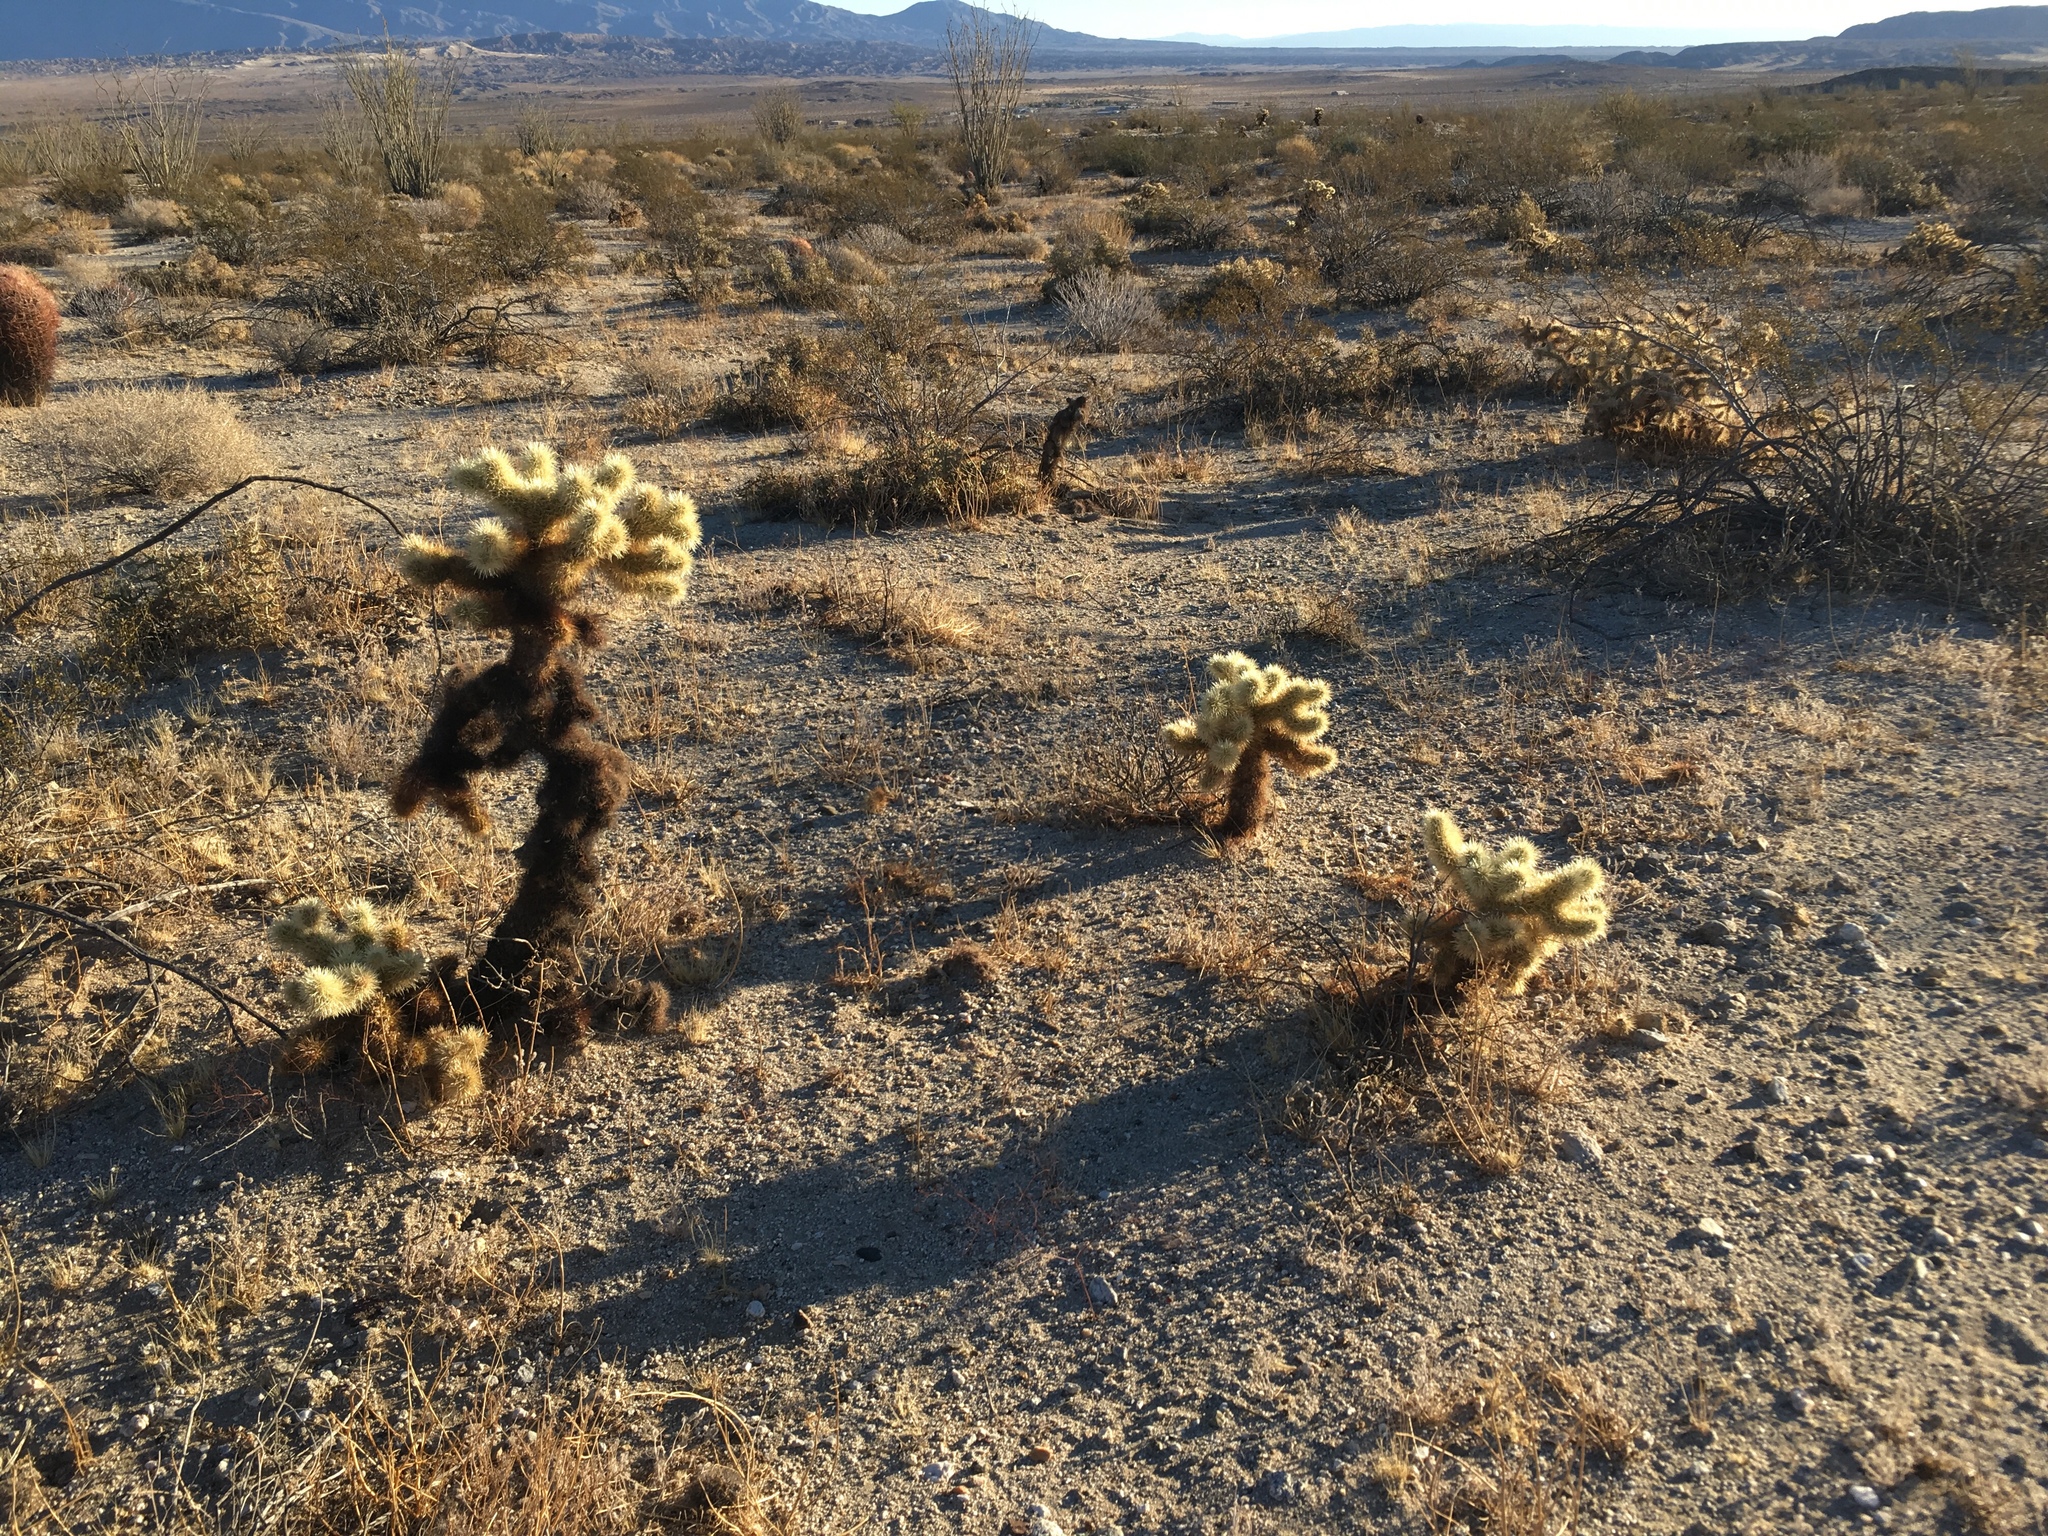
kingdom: Plantae
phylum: Tracheophyta
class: Magnoliopsida
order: Caryophyllales
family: Cactaceae
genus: Cylindropuntia
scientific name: Cylindropuntia fosbergii
